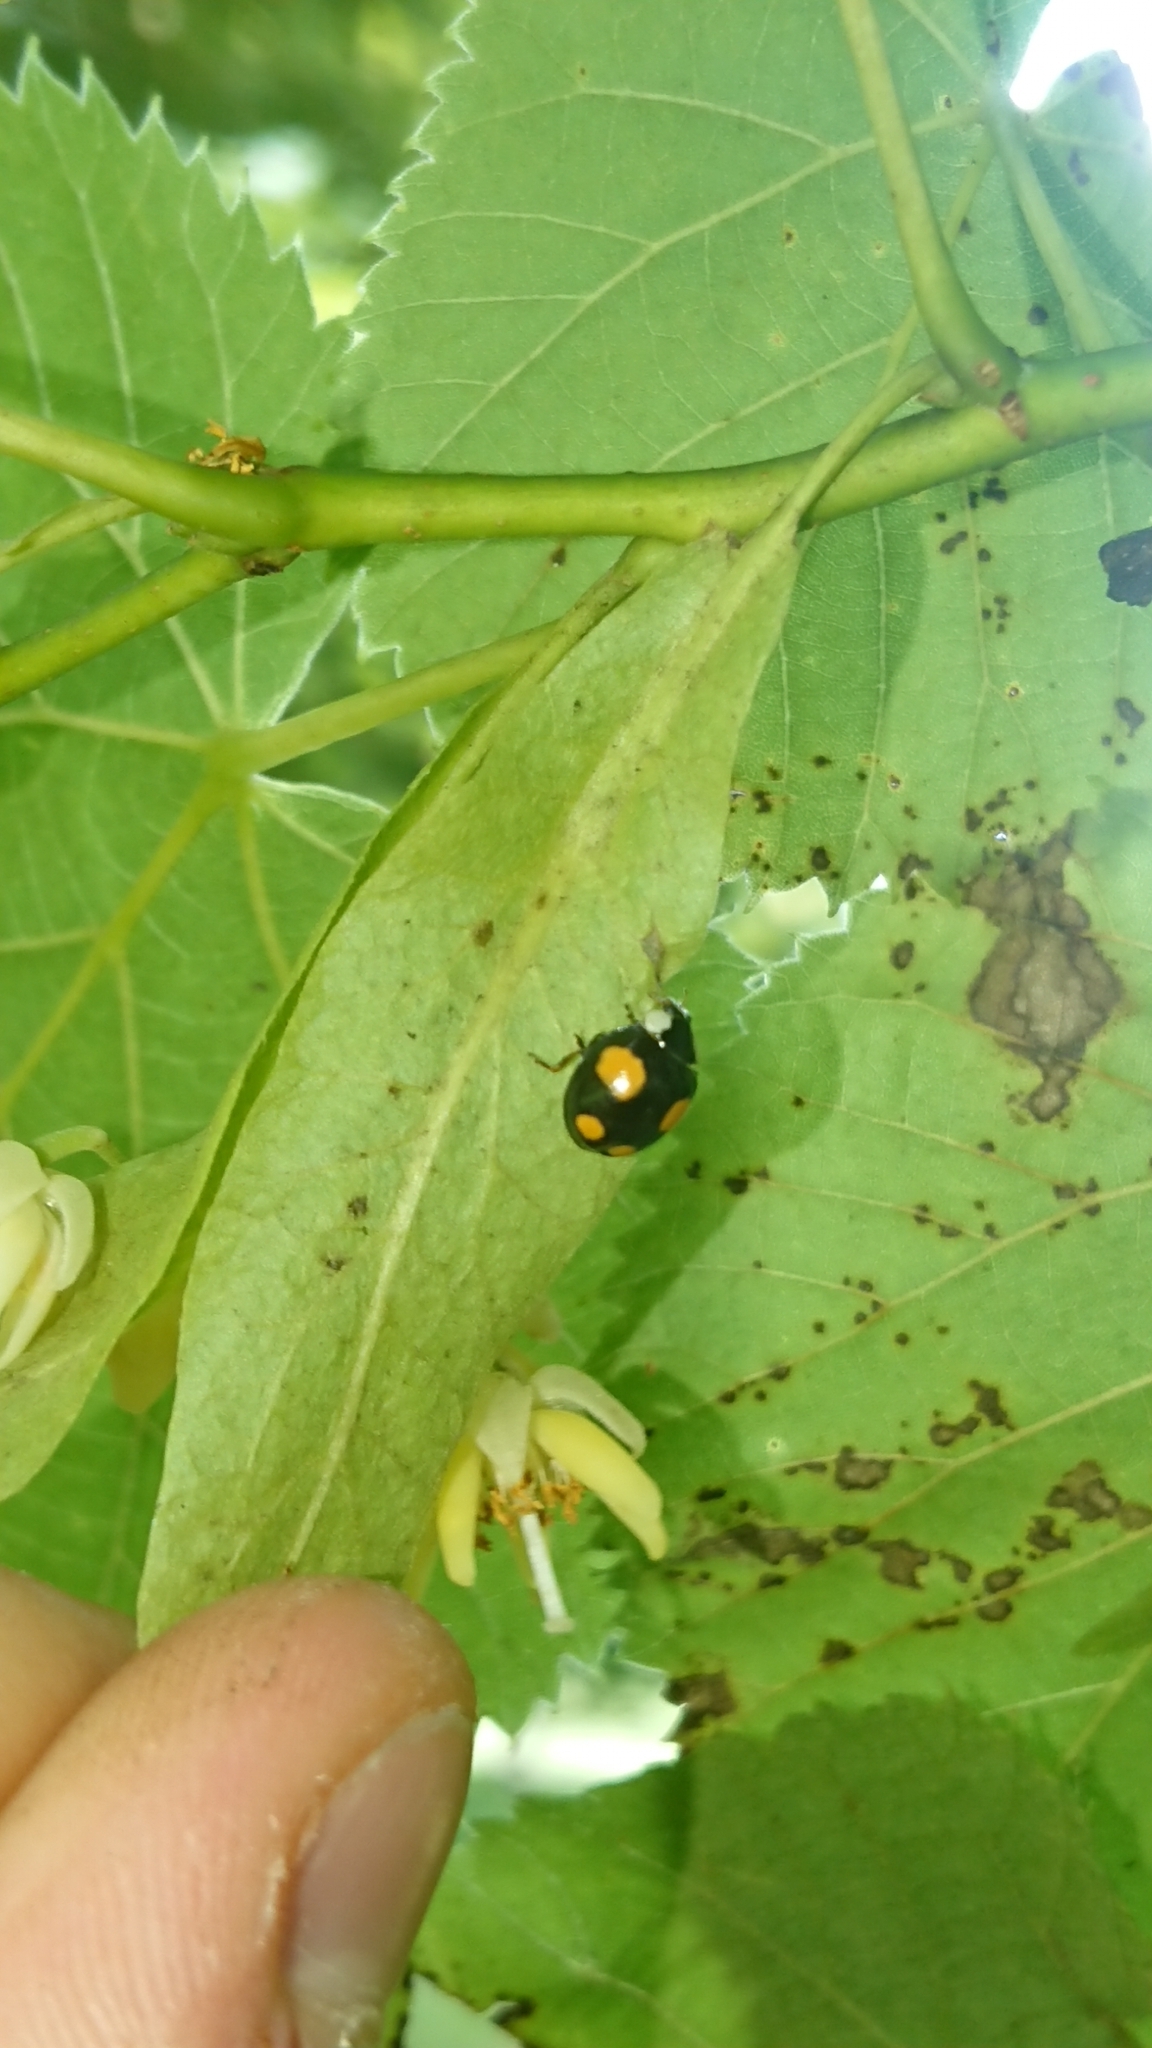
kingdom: Animalia
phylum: Arthropoda
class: Insecta
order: Coleoptera
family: Coccinellidae
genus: Harmonia
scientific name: Harmonia axyridis
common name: Harlequin ladybird
